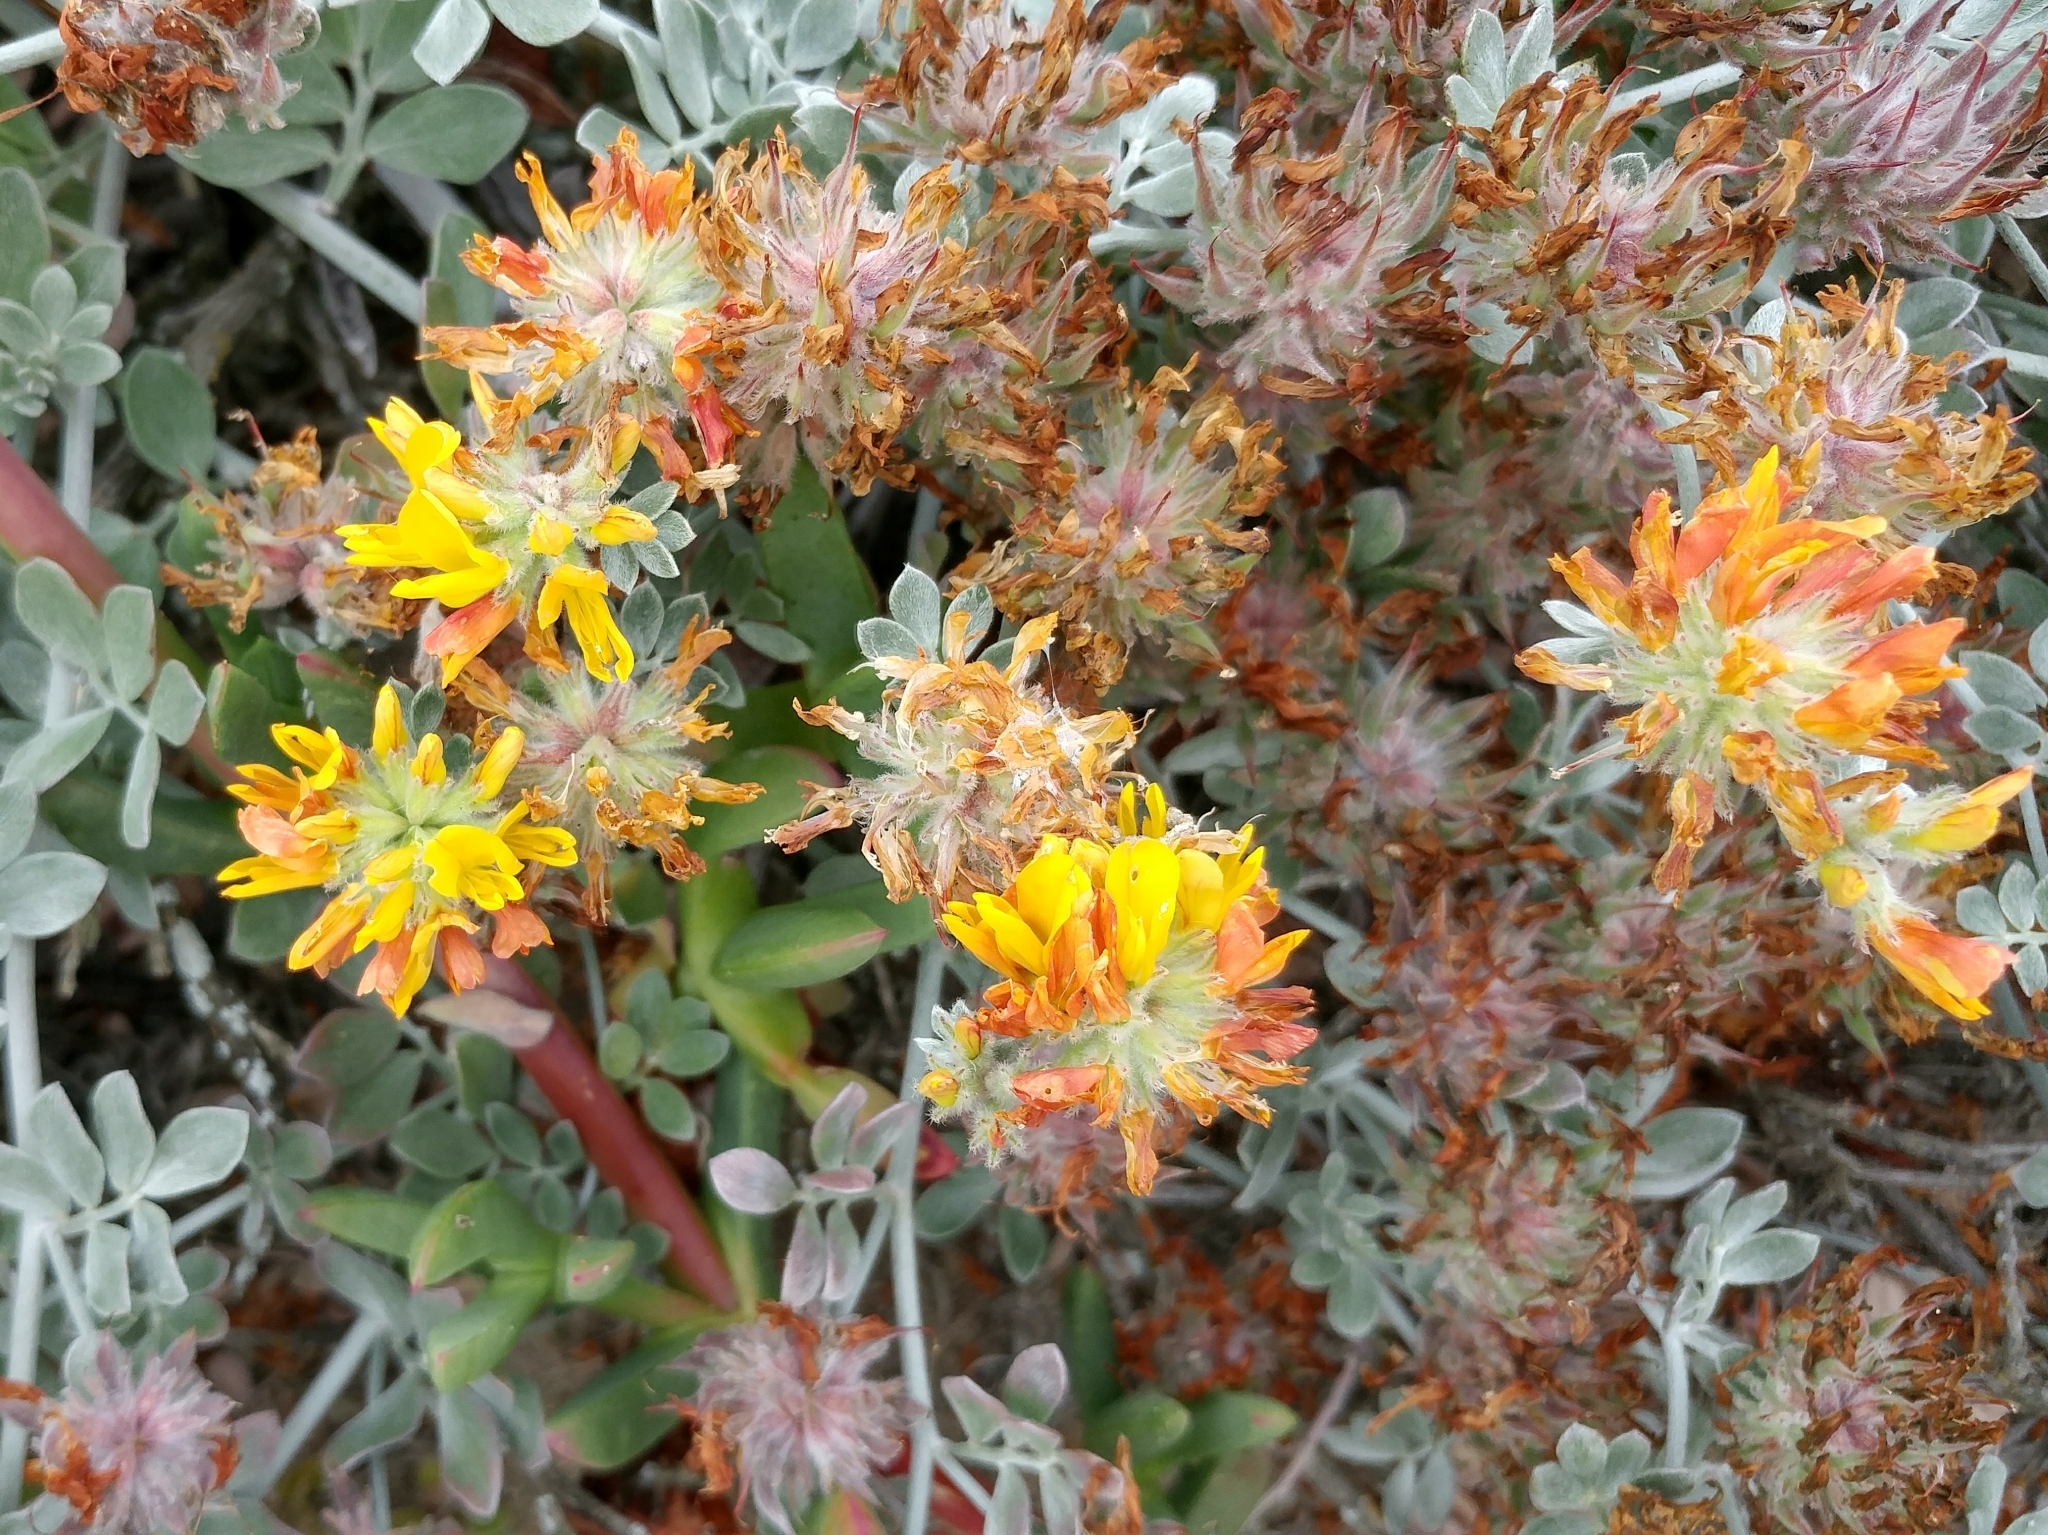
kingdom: Plantae
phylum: Tracheophyta
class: Magnoliopsida
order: Fabales
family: Fabaceae
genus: Acmispon
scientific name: Acmispon argophyllus
